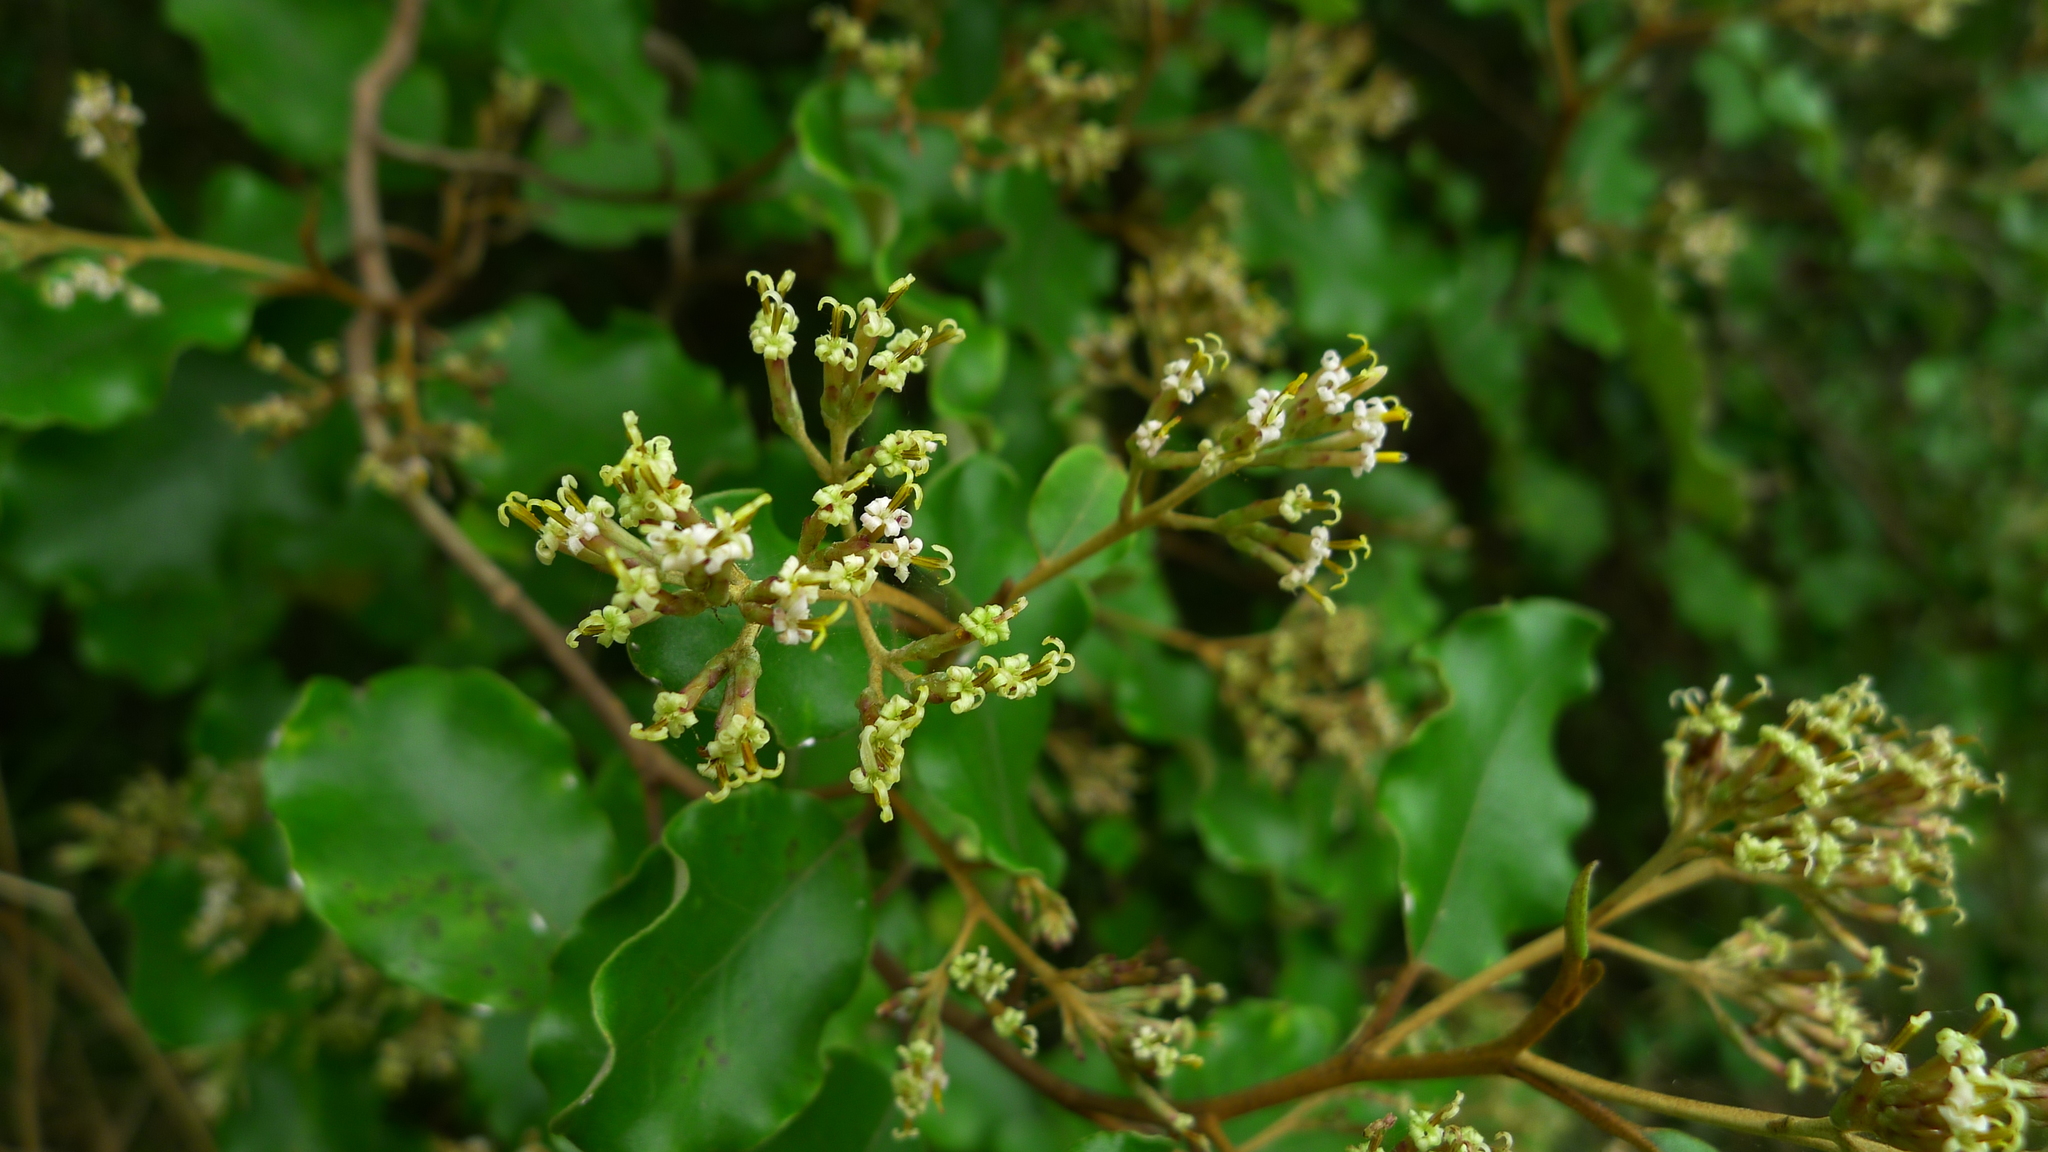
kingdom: Plantae
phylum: Tracheophyta
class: Magnoliopsida
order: Asterales
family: Asteraceae
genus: Olearia
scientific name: Olearia paniculata
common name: Akiraho
